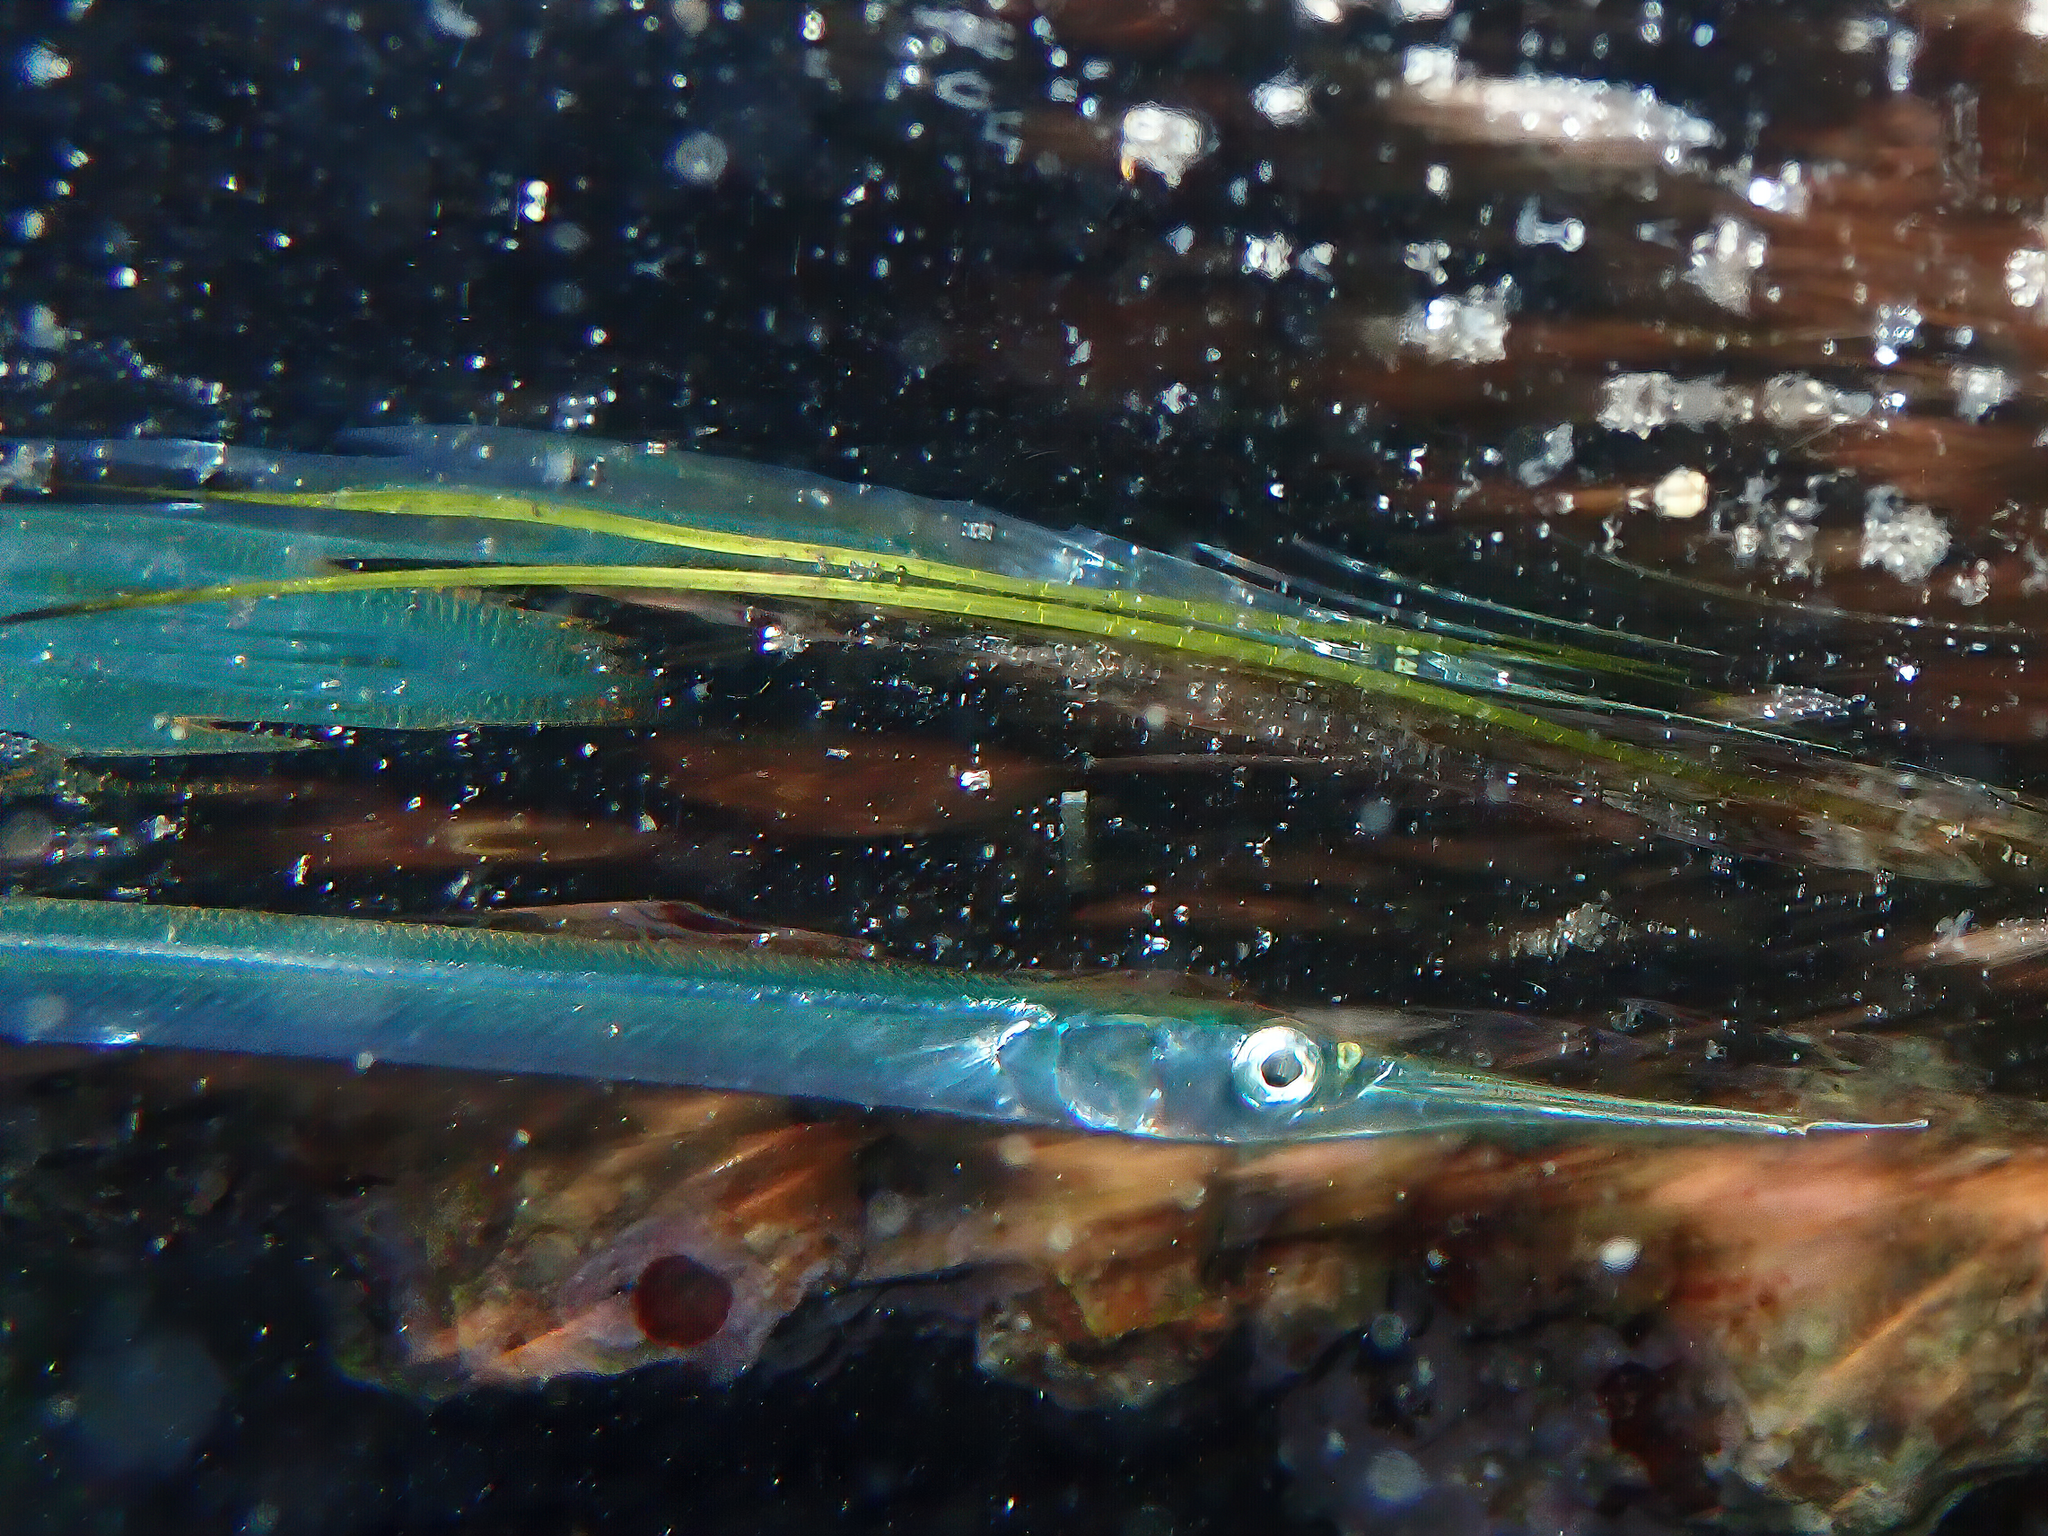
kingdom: Animalia
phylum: Chordata
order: Beloniformes
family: Belonidae
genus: Belone
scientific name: Belone belone
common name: Garfish
